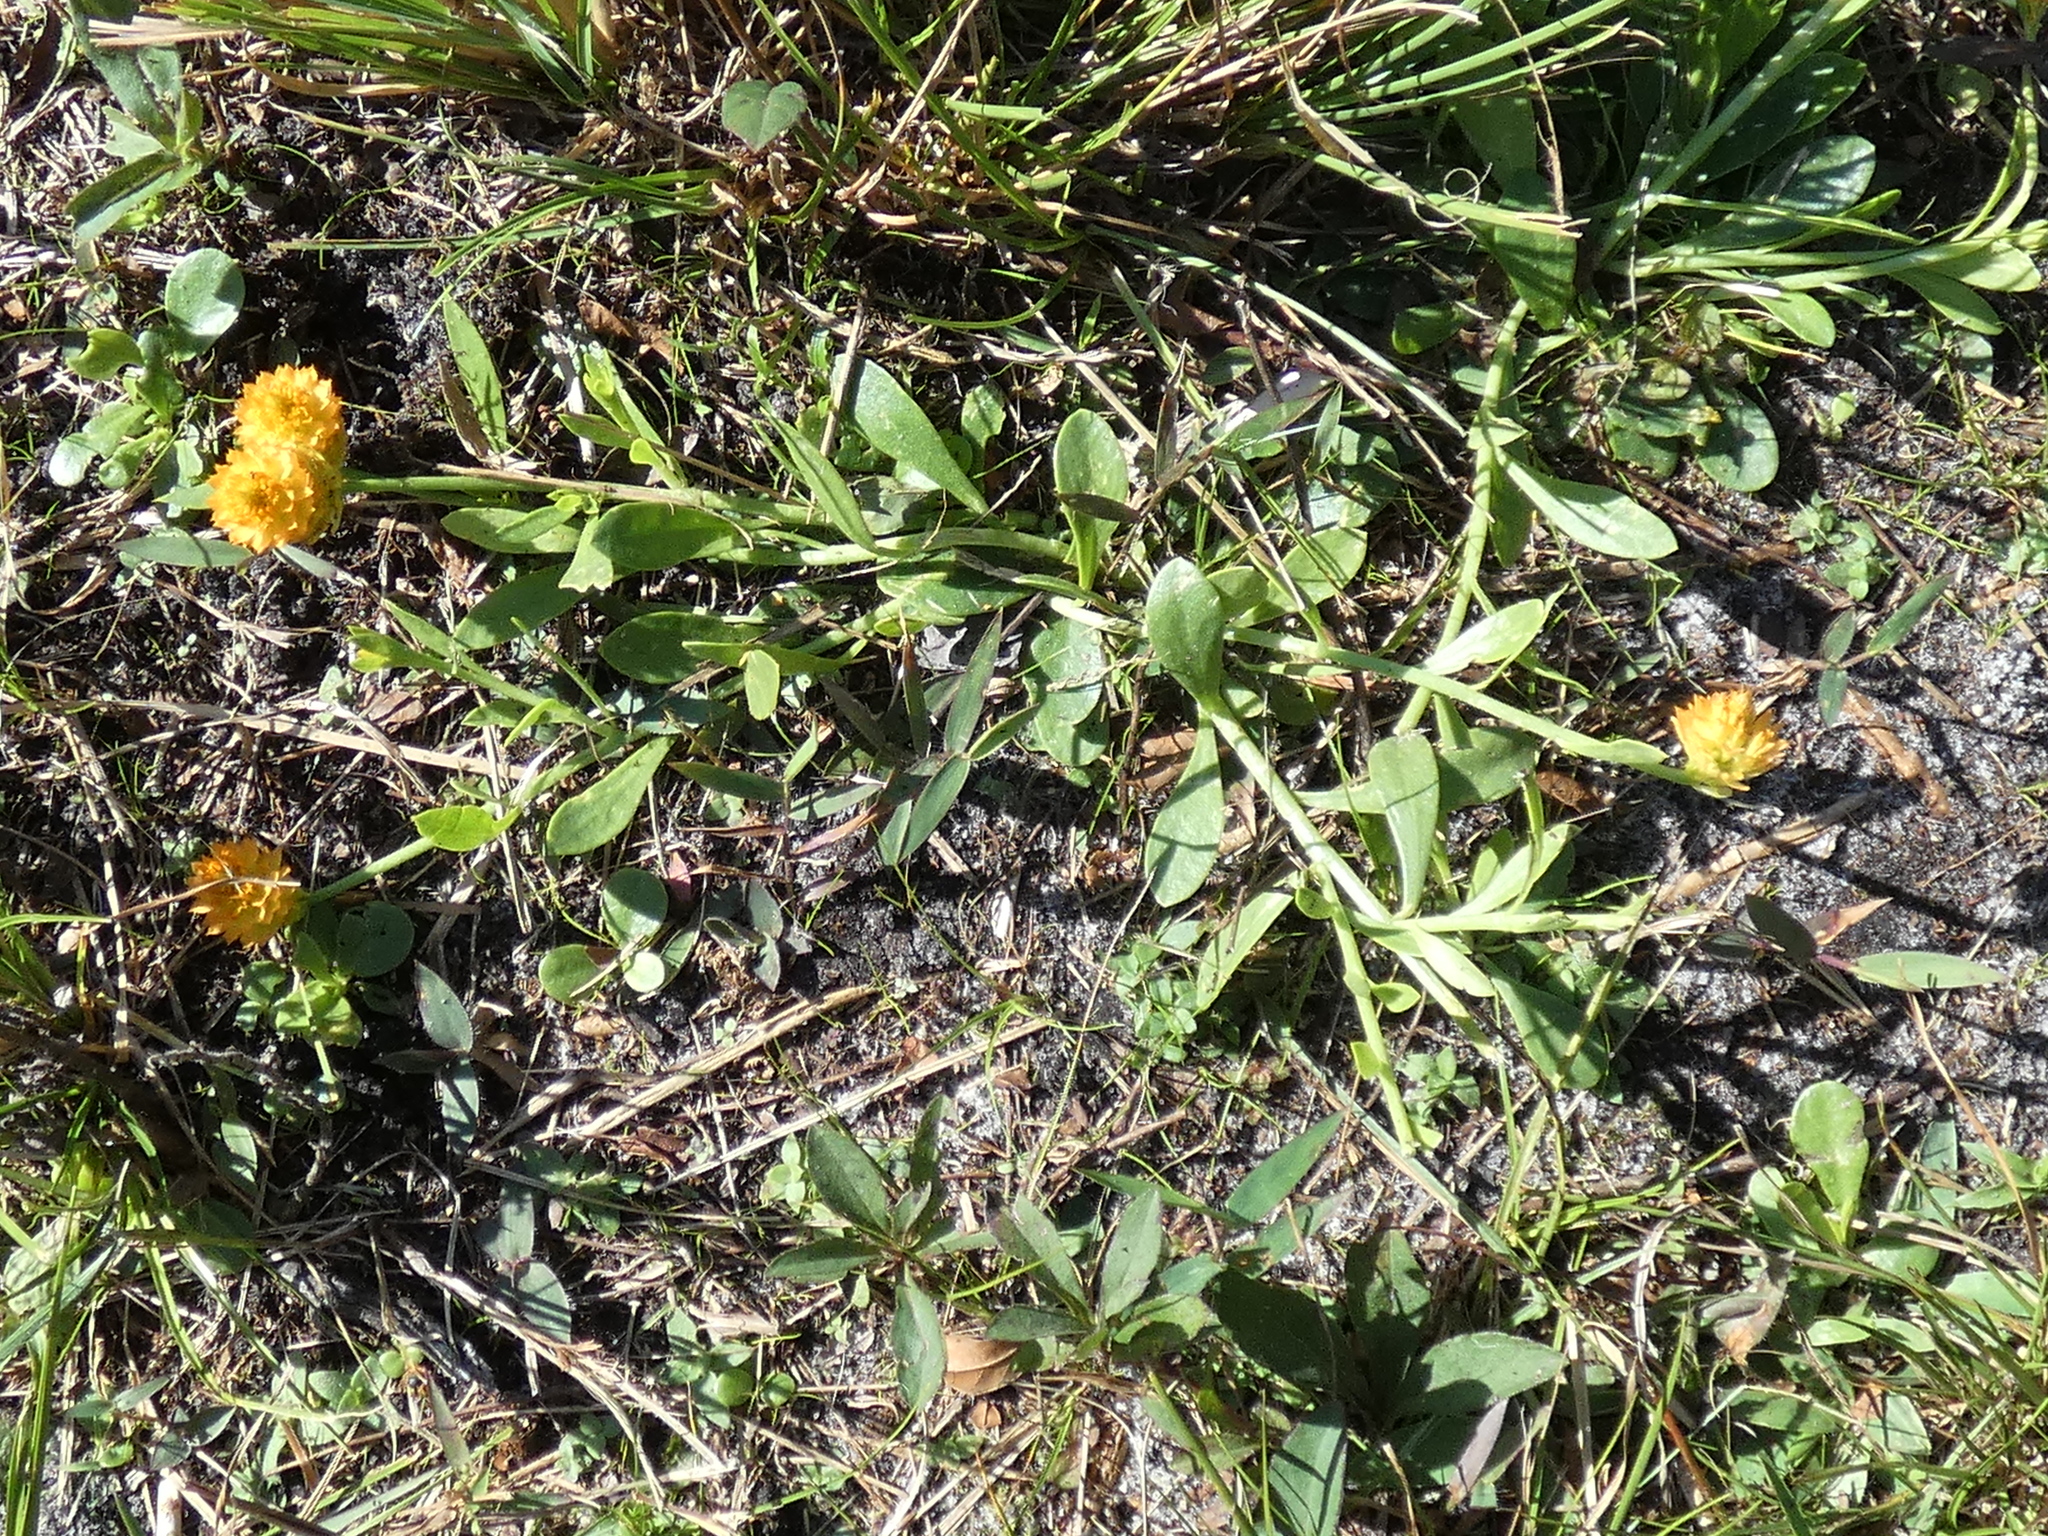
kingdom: Plantae
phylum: Tracheophyta
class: Magnoliopsida
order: Fabales
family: Polygalaceae
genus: Polygala
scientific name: Polygala lutea
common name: Orange milkwort
